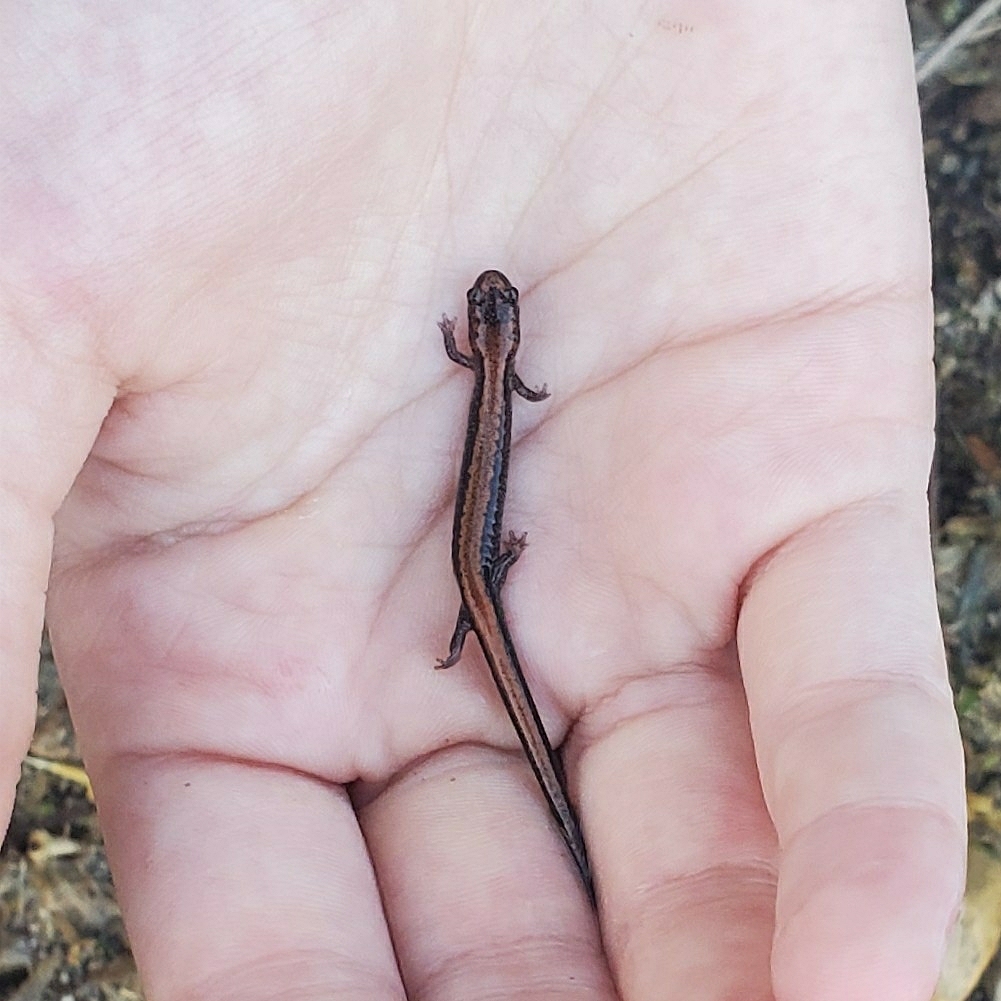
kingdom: Animalia
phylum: Chordata
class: Amphibia
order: Caudata
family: Plethodontidae
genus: Plethodon
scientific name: Plethodon cinereus
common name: Redback salamander
